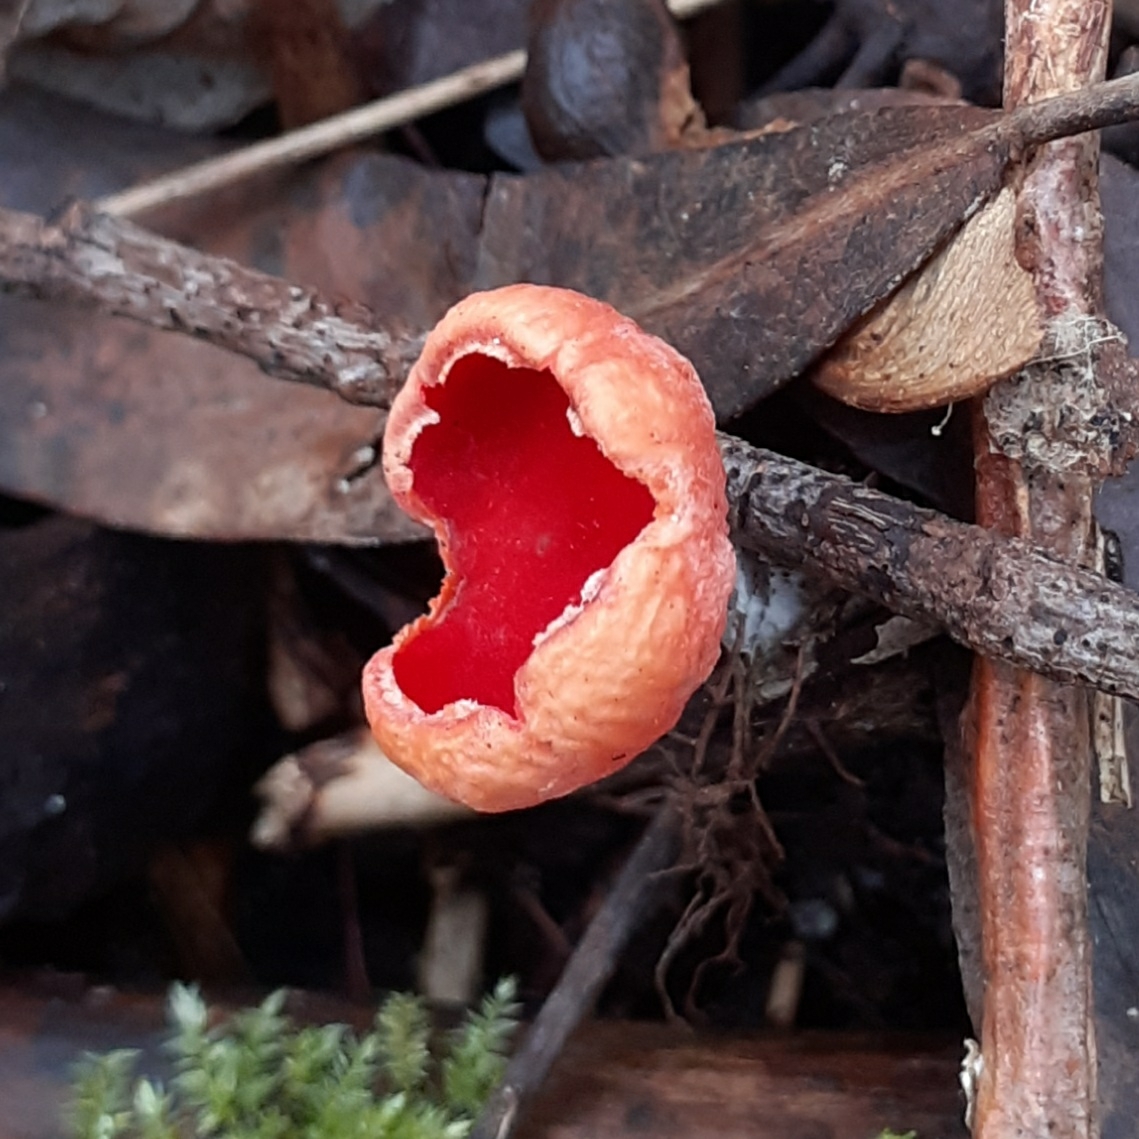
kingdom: Fungi
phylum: Ascomycota
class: Pezizomycetes
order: Pezizales
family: Sarcoscyphaceae
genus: Sarcoscypha
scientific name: Sarcoscypha
